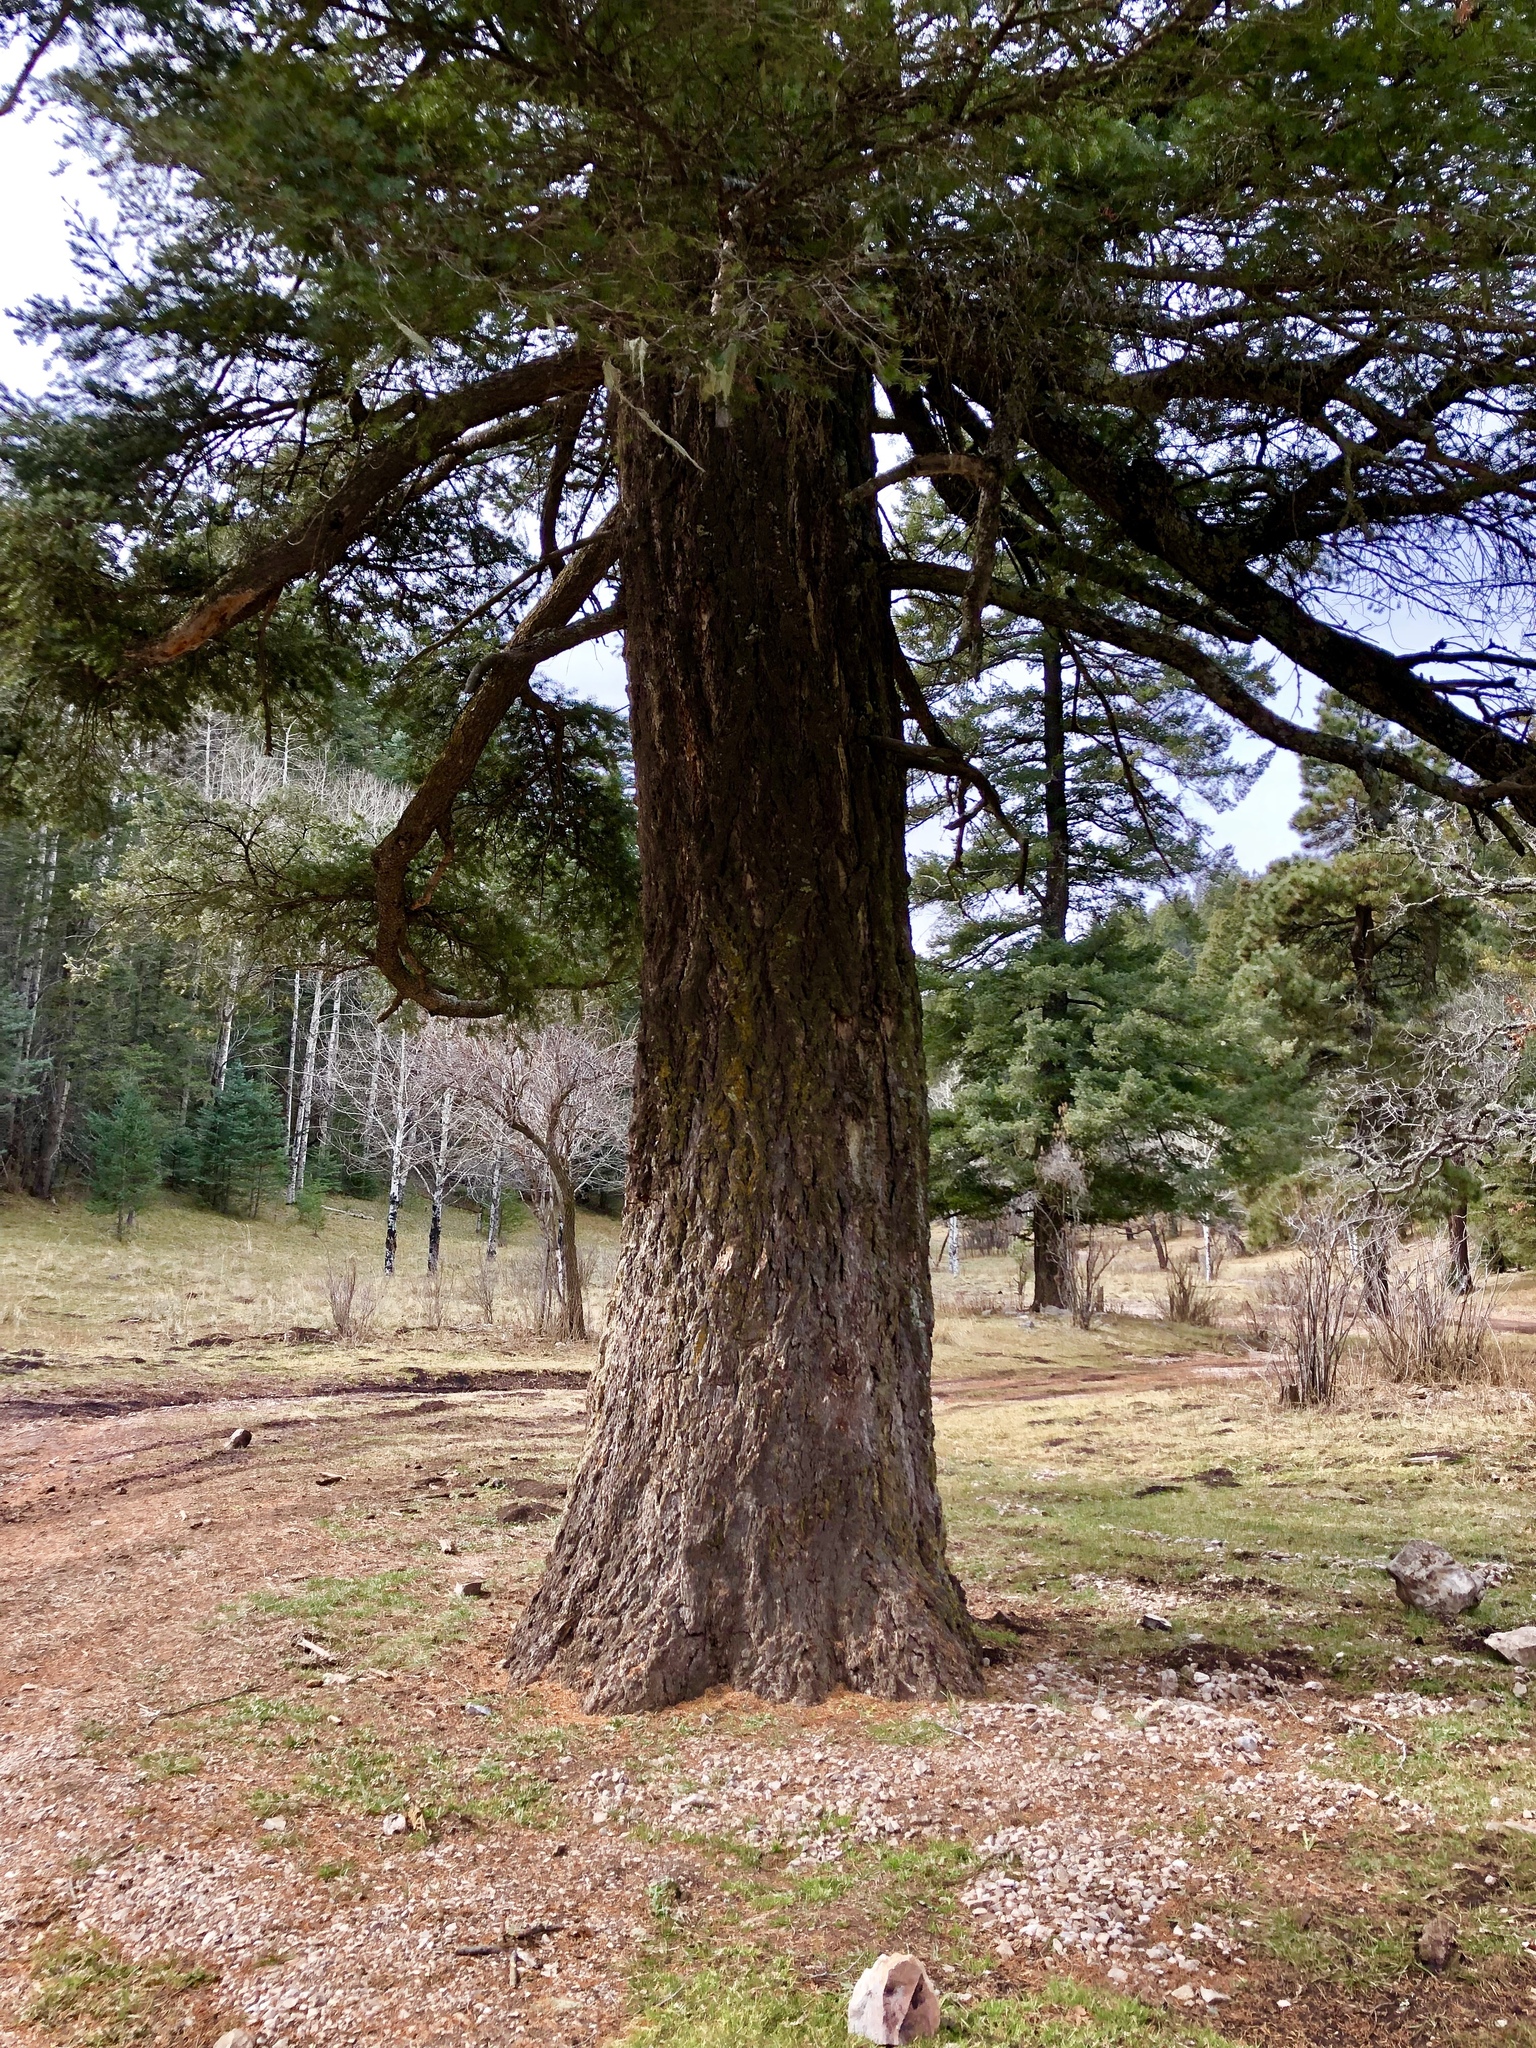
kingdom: Plantae
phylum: Tracheophyta
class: Pinopsida
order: Pinales
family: Pinaceae
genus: Pseudotsuga
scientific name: Pseudotsuga menziesii
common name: Douglas fir
